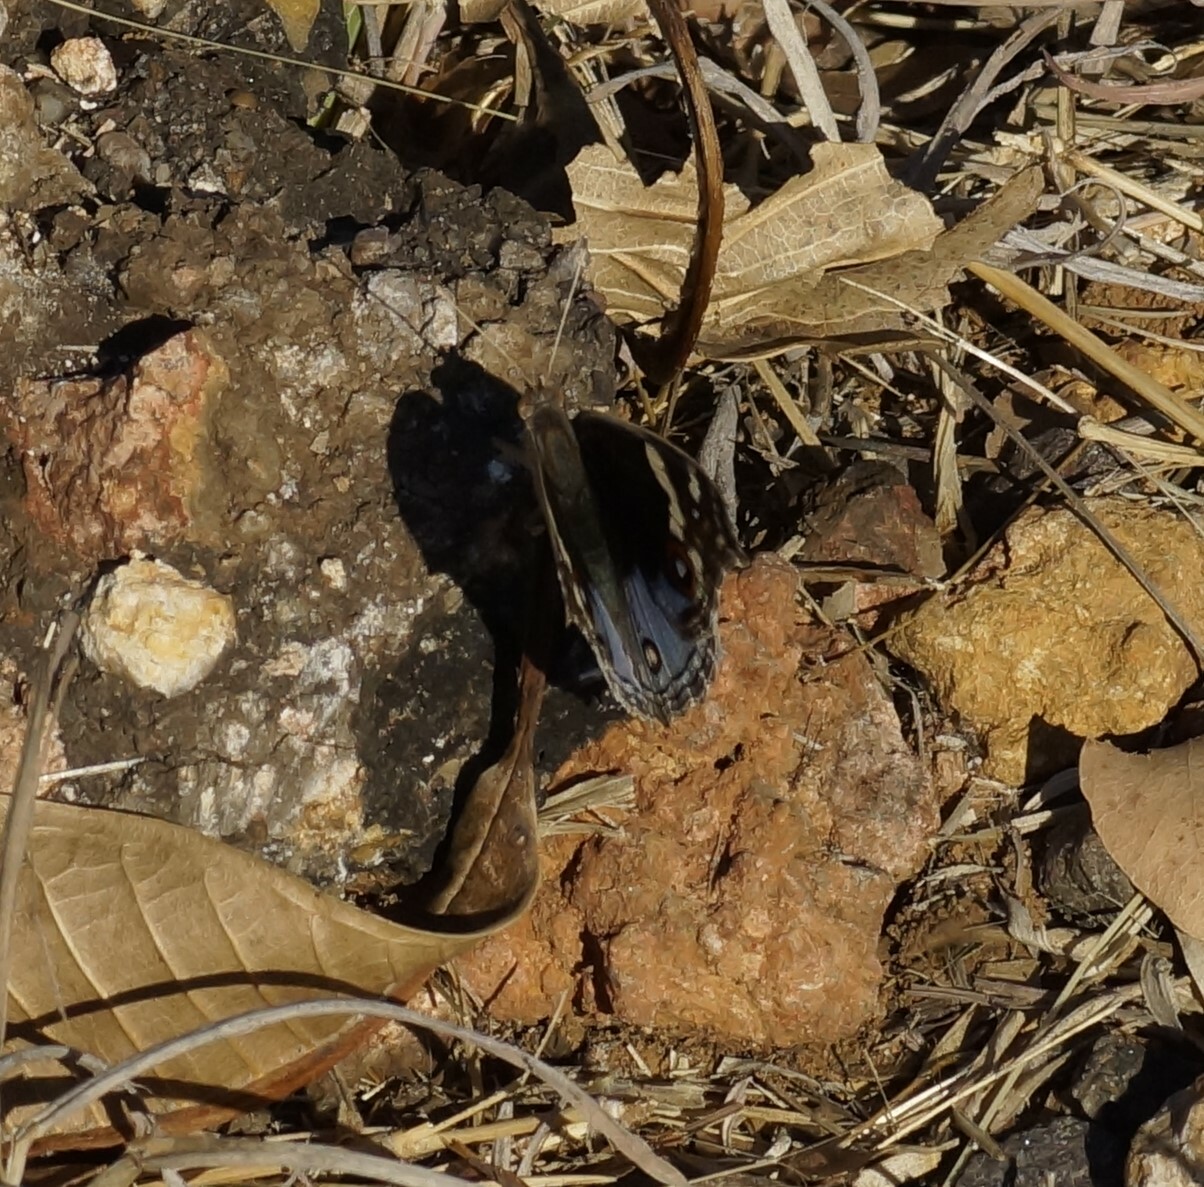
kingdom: Animalia
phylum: Arthropoda
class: Insecta
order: Lepidoptera
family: Nymphalidae
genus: Junonia
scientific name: Junonia orithya
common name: Blue pansy
